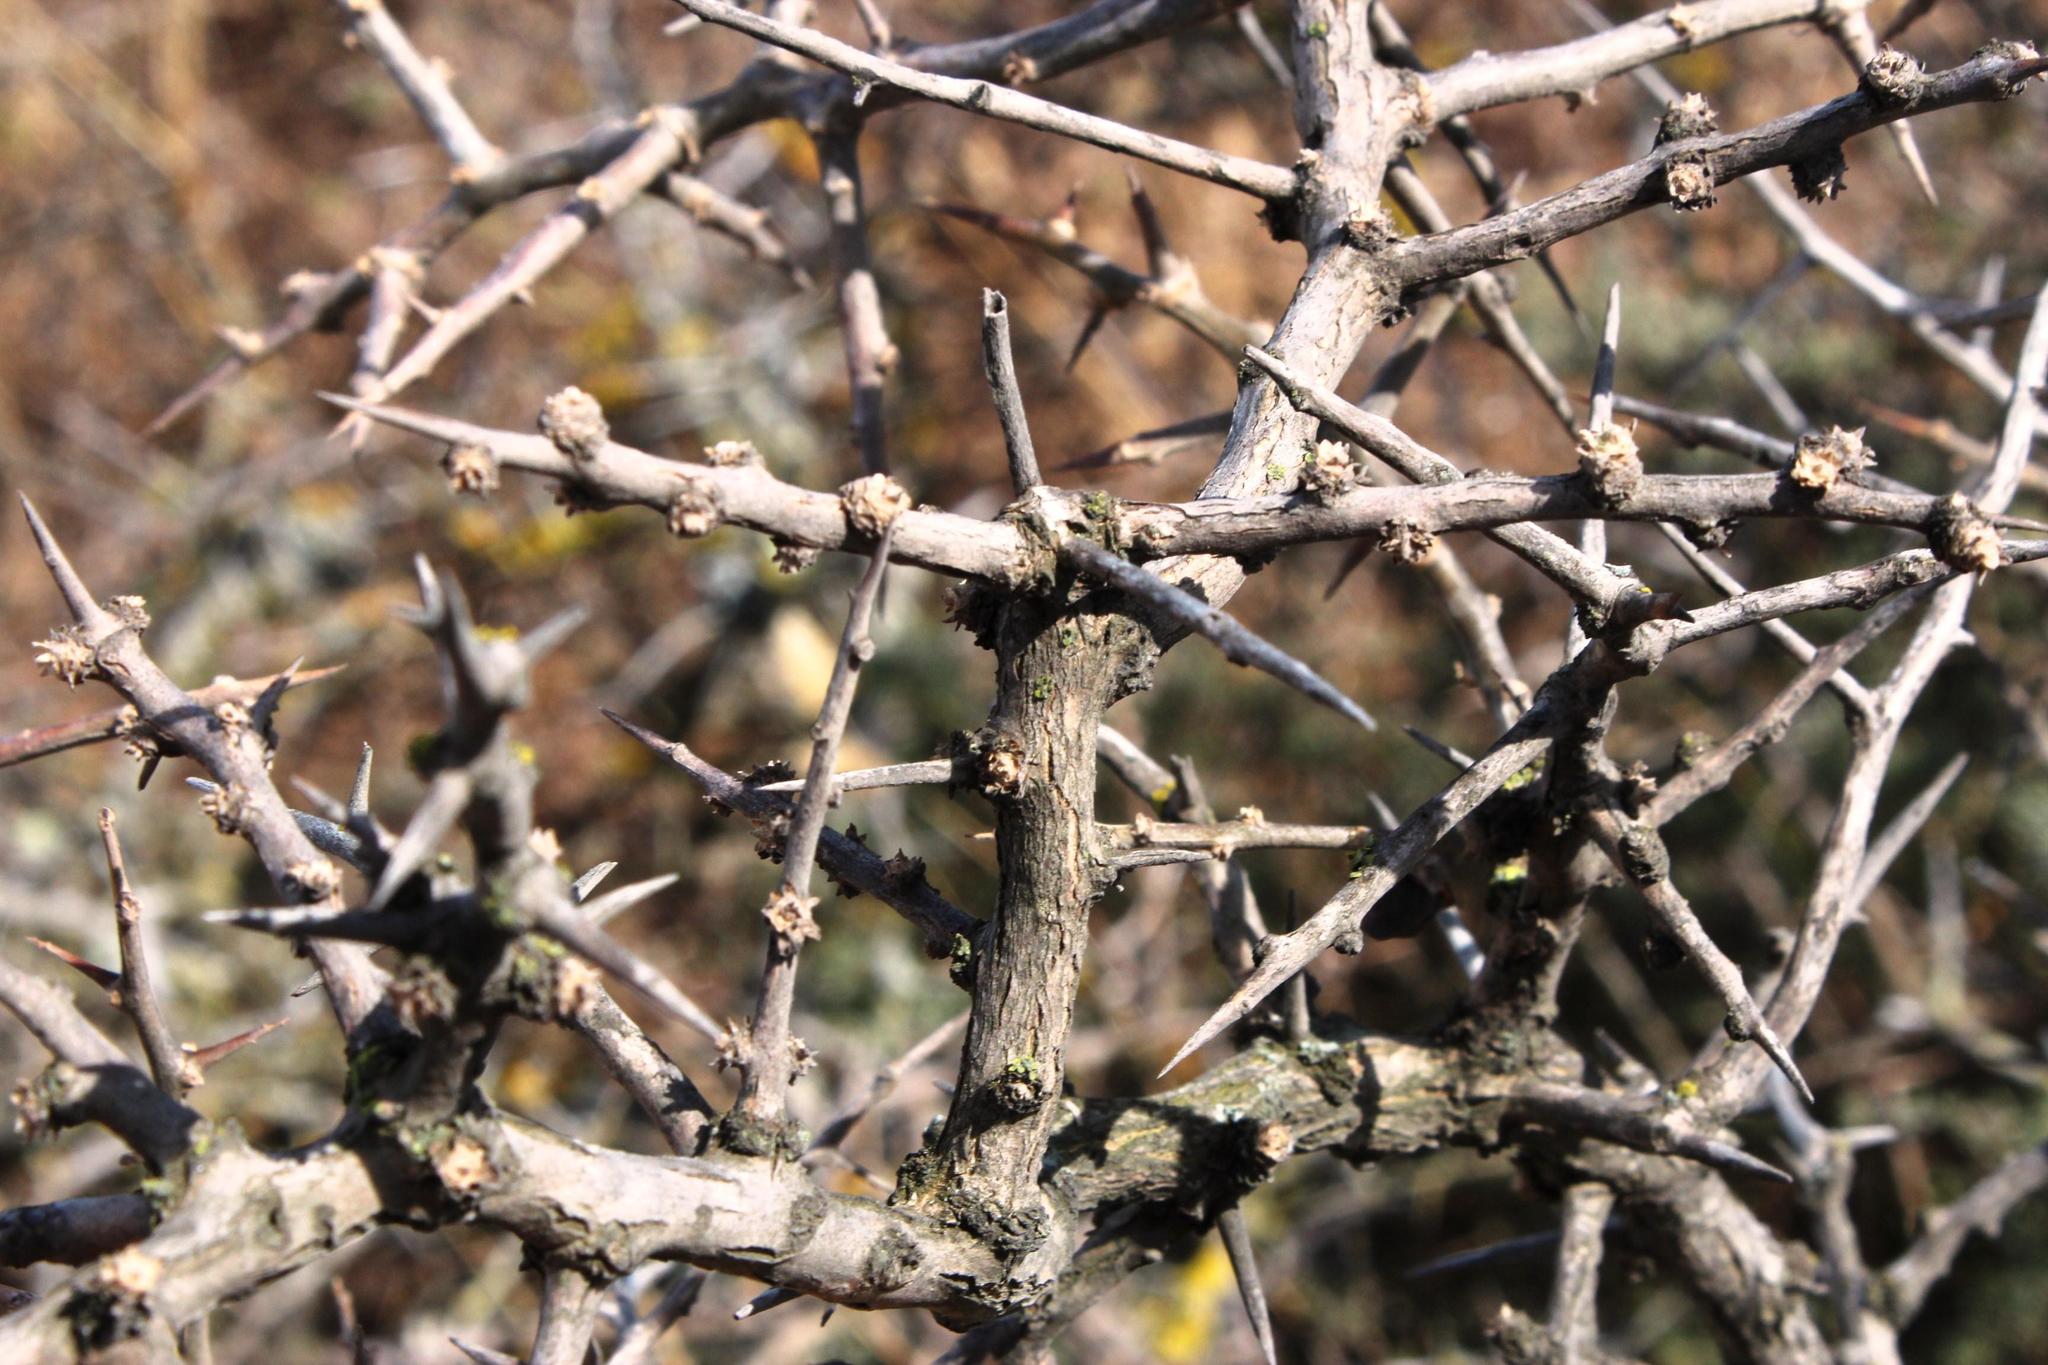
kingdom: Plantae
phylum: Tracheophyta
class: Magnoliopsida
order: Solanales
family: Solanaceae
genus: Lycium
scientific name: Lycium ferocissimum
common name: African boxthorn
